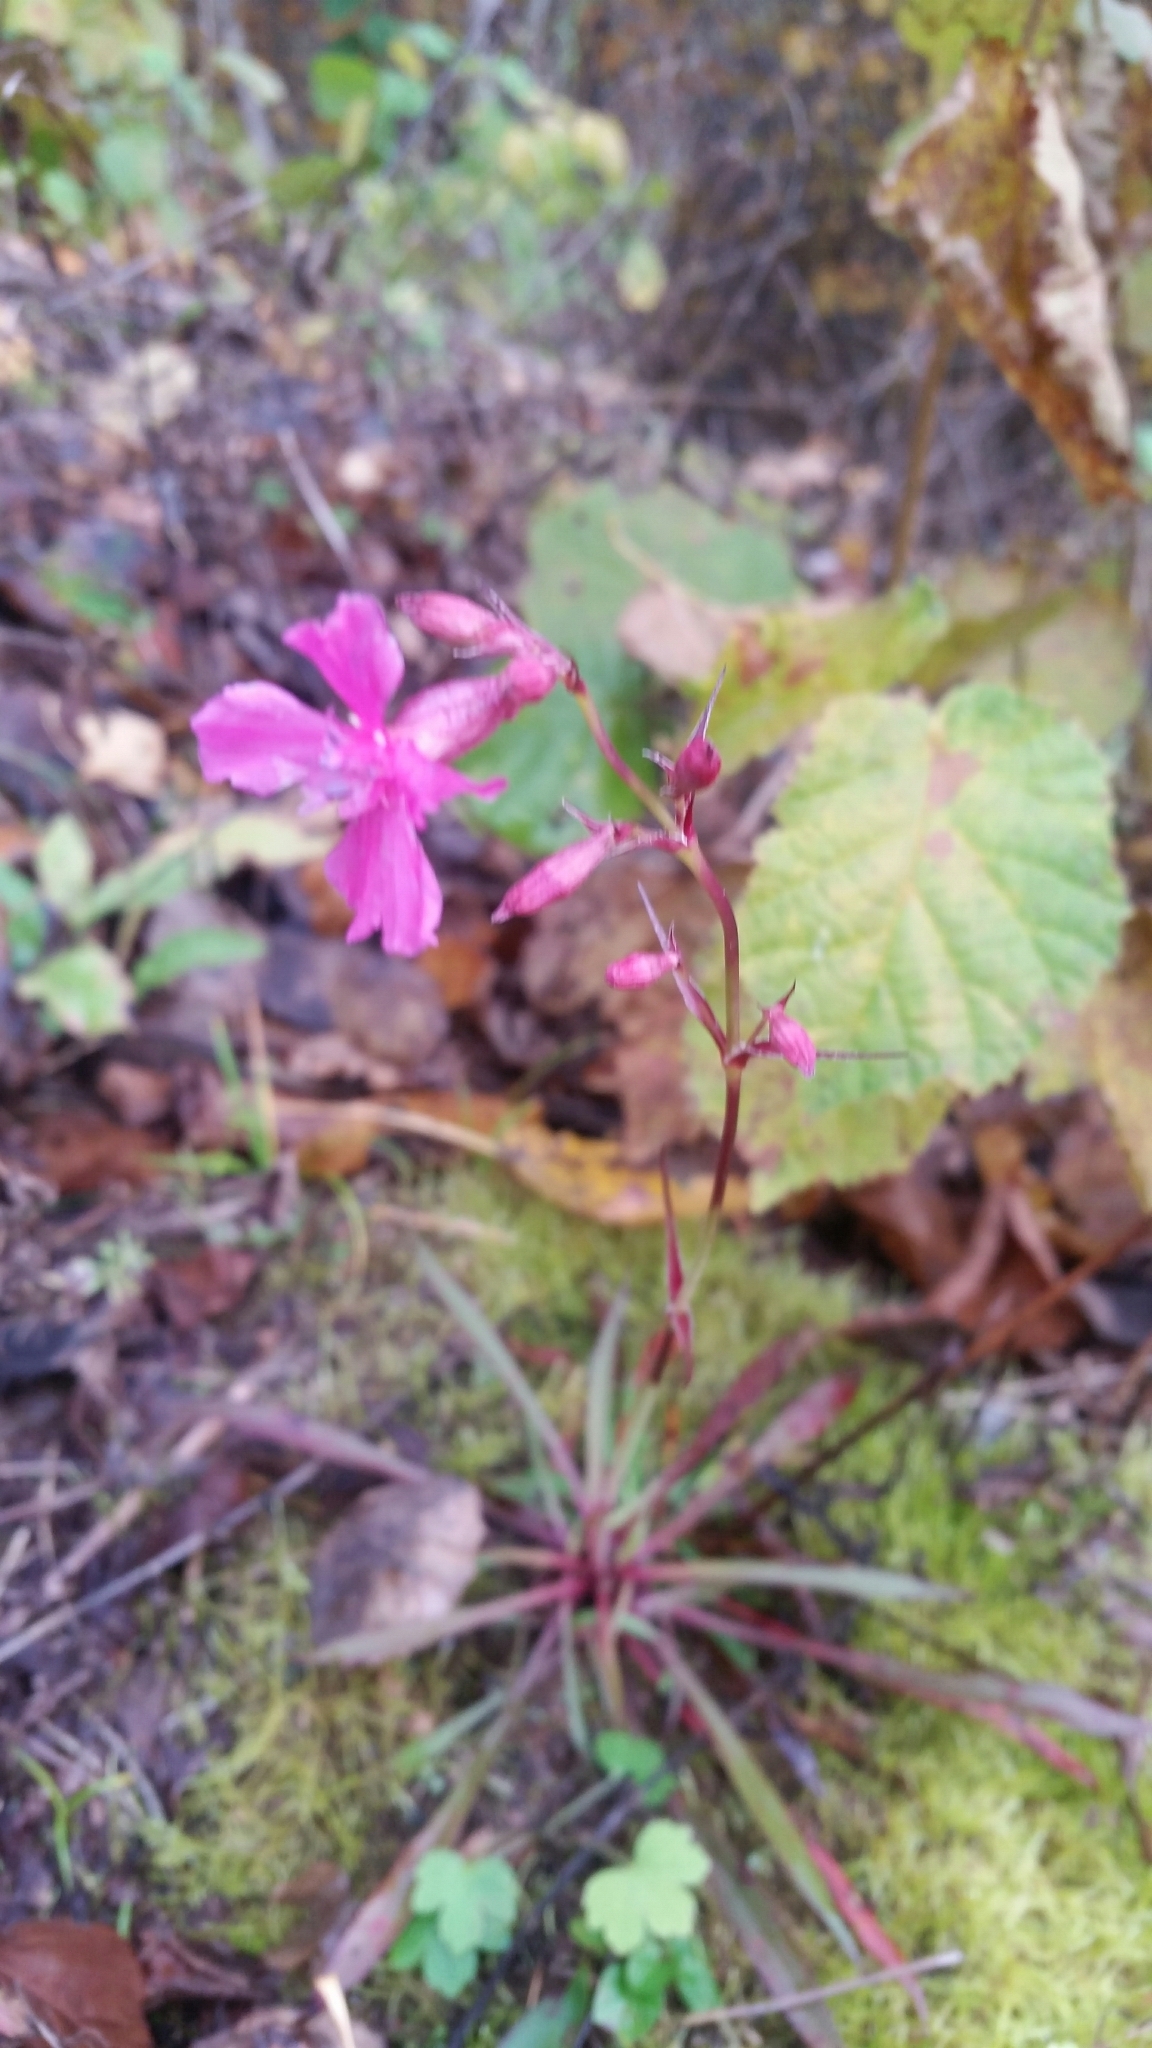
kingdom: Plantae
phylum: Tracheophyta
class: Magnoliopsida
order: Caryophyllales
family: Caryophyllaceae
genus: Viscaria
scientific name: Viscaria vulgaris
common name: Clammy campion
